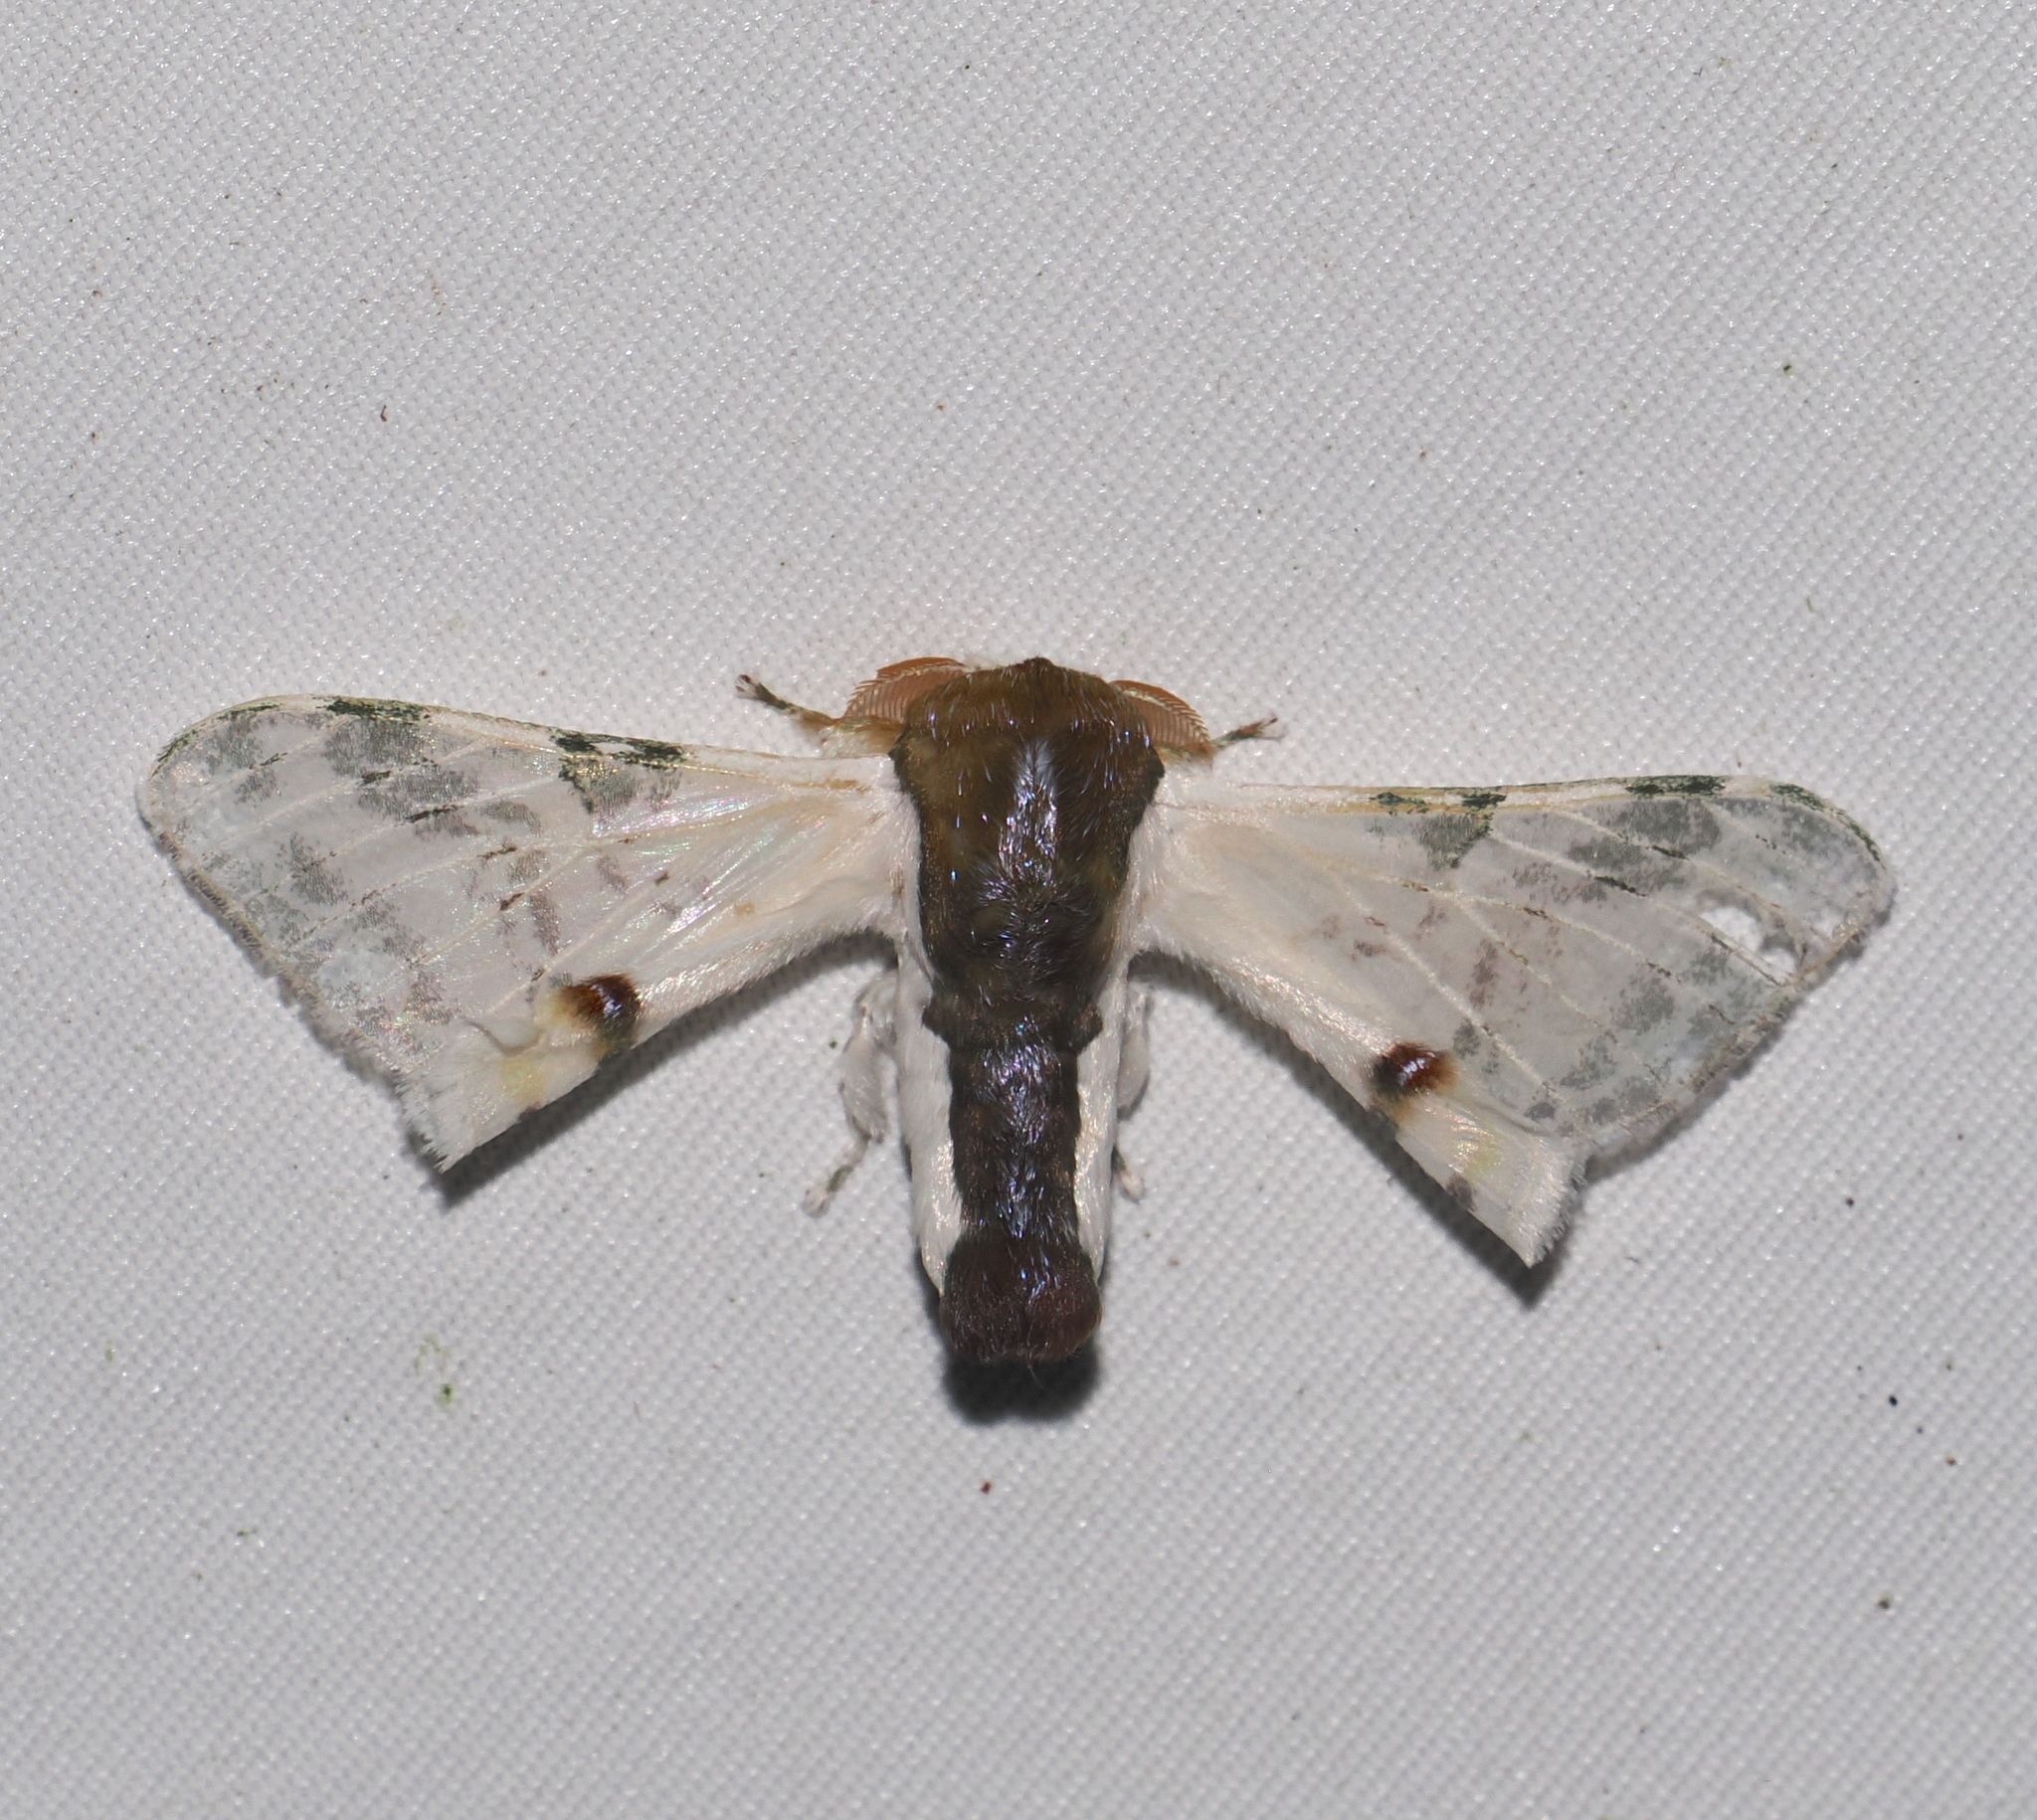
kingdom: Animalia
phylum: Arthropoda
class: Insecta
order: Lepidoptera
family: Bombycidae
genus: Colla
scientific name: Colla rhodope
